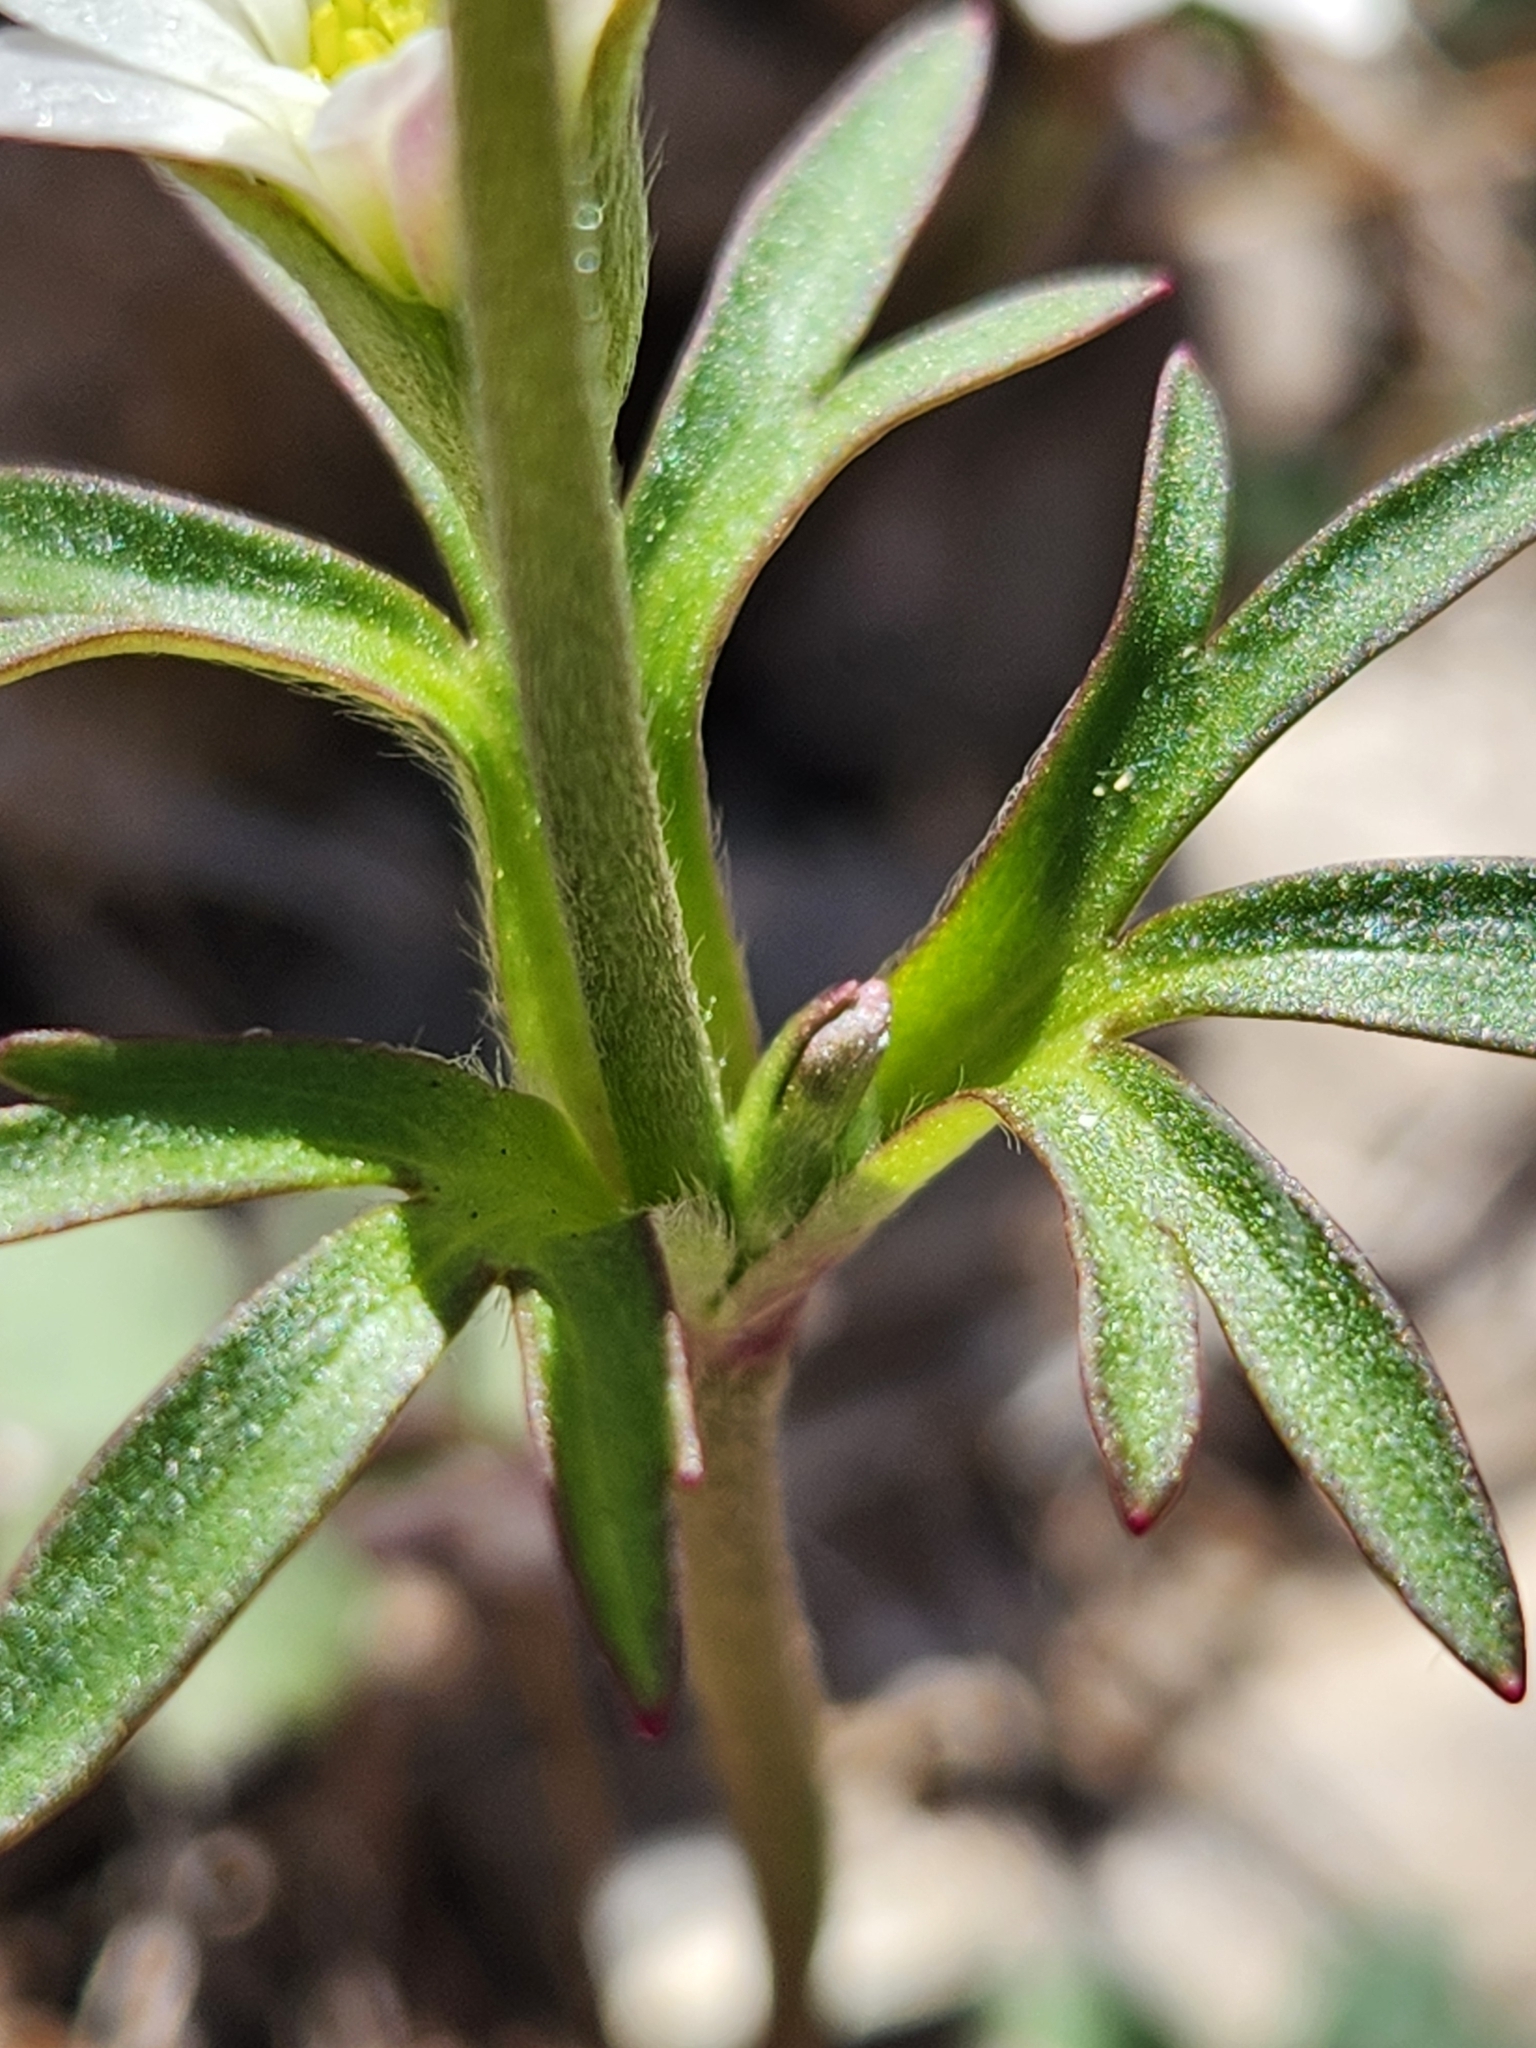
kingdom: Plantae
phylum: Tracheophyta
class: Magnoliopsida
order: Ranunculales
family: Ranunculaceae
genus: Anemone
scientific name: Anemone edwardsiana
